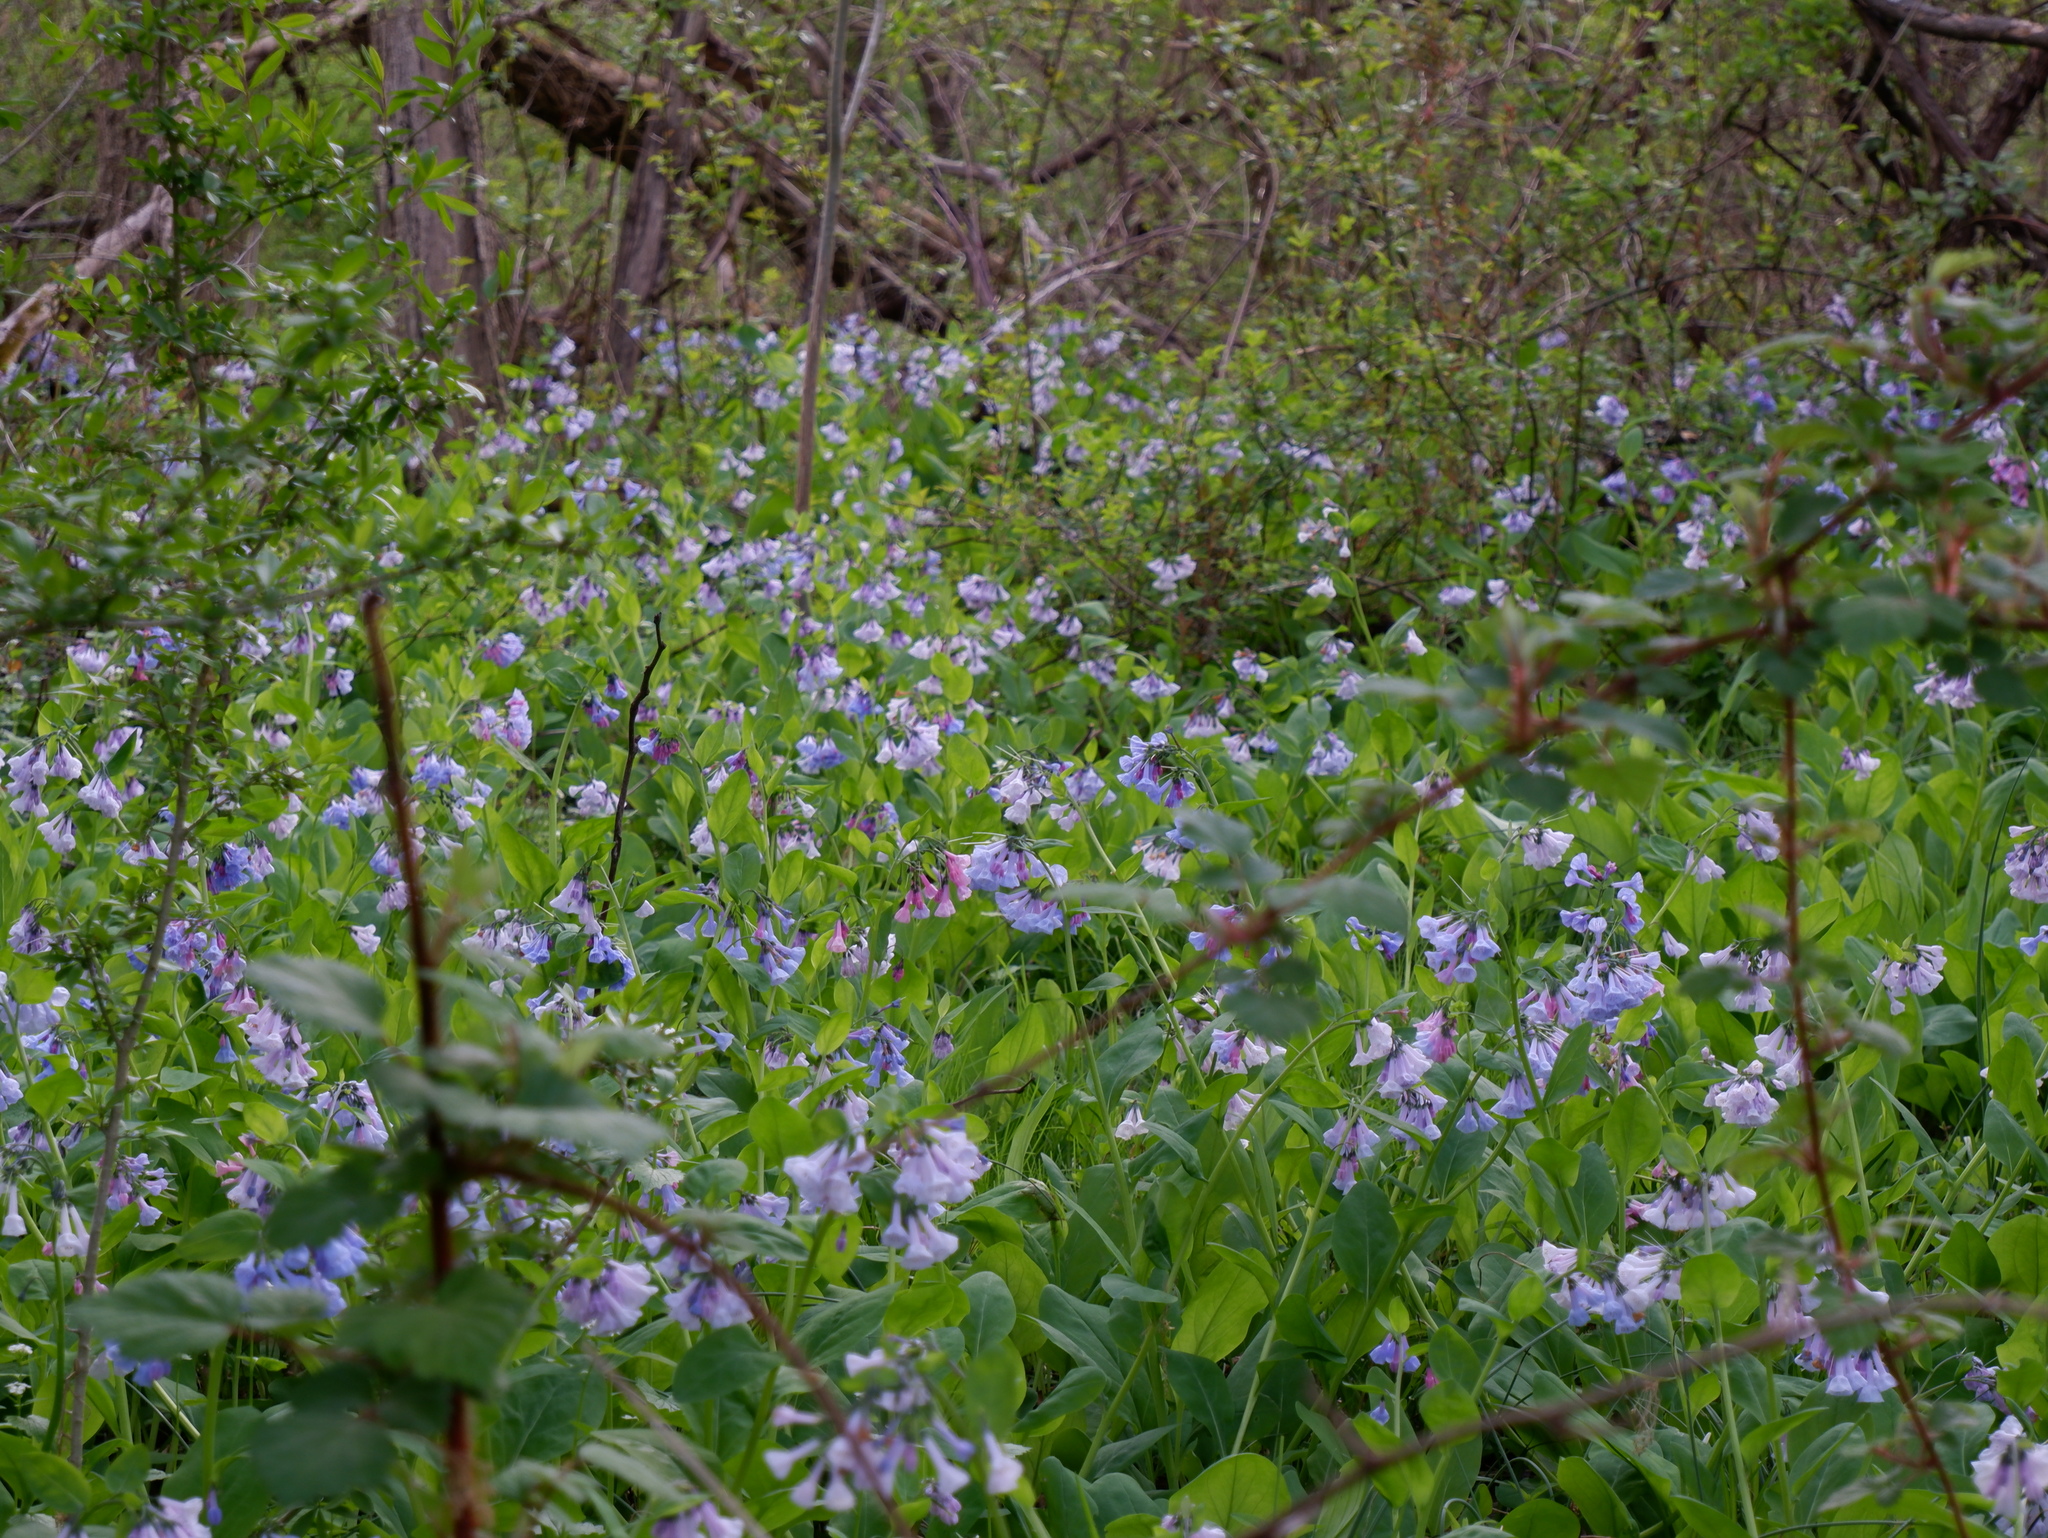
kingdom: Plantae
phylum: Tracheophyta
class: Magnoliopsida
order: Boraginales
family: Boraginaceae
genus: Mertensia
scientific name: Mertensia virginica
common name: Virginia bluebells
